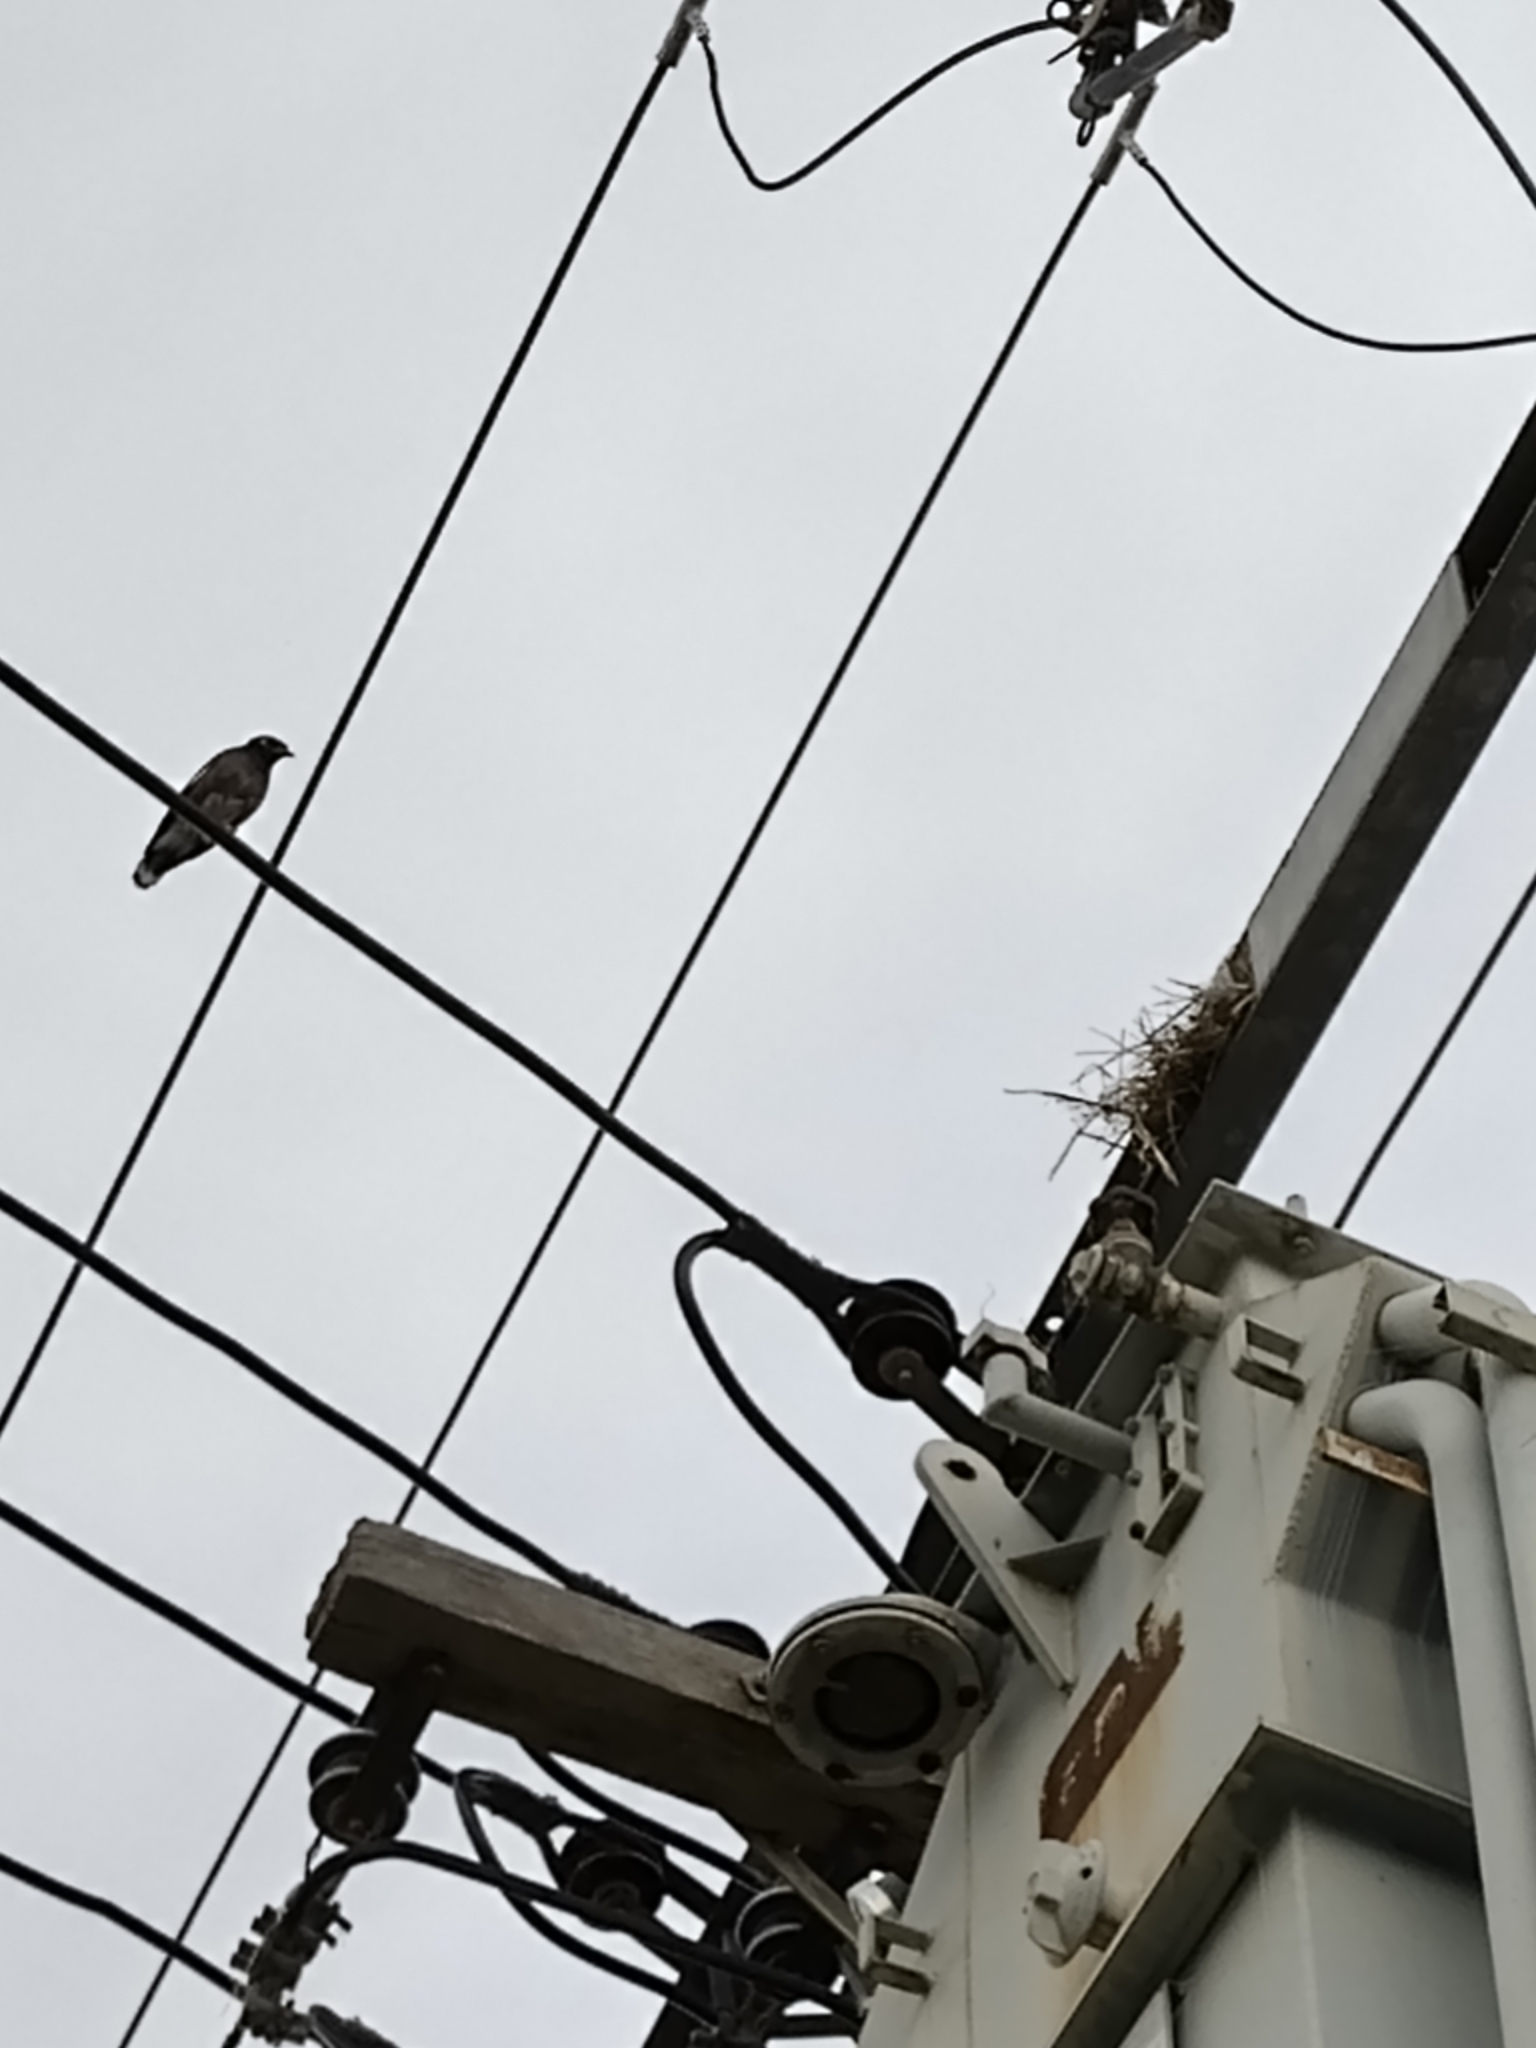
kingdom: Animalia
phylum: Chordata
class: Aves
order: Passeriformes
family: Sturnidae
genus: Acridotheres
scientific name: Acridotheres tristis
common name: Common myna
